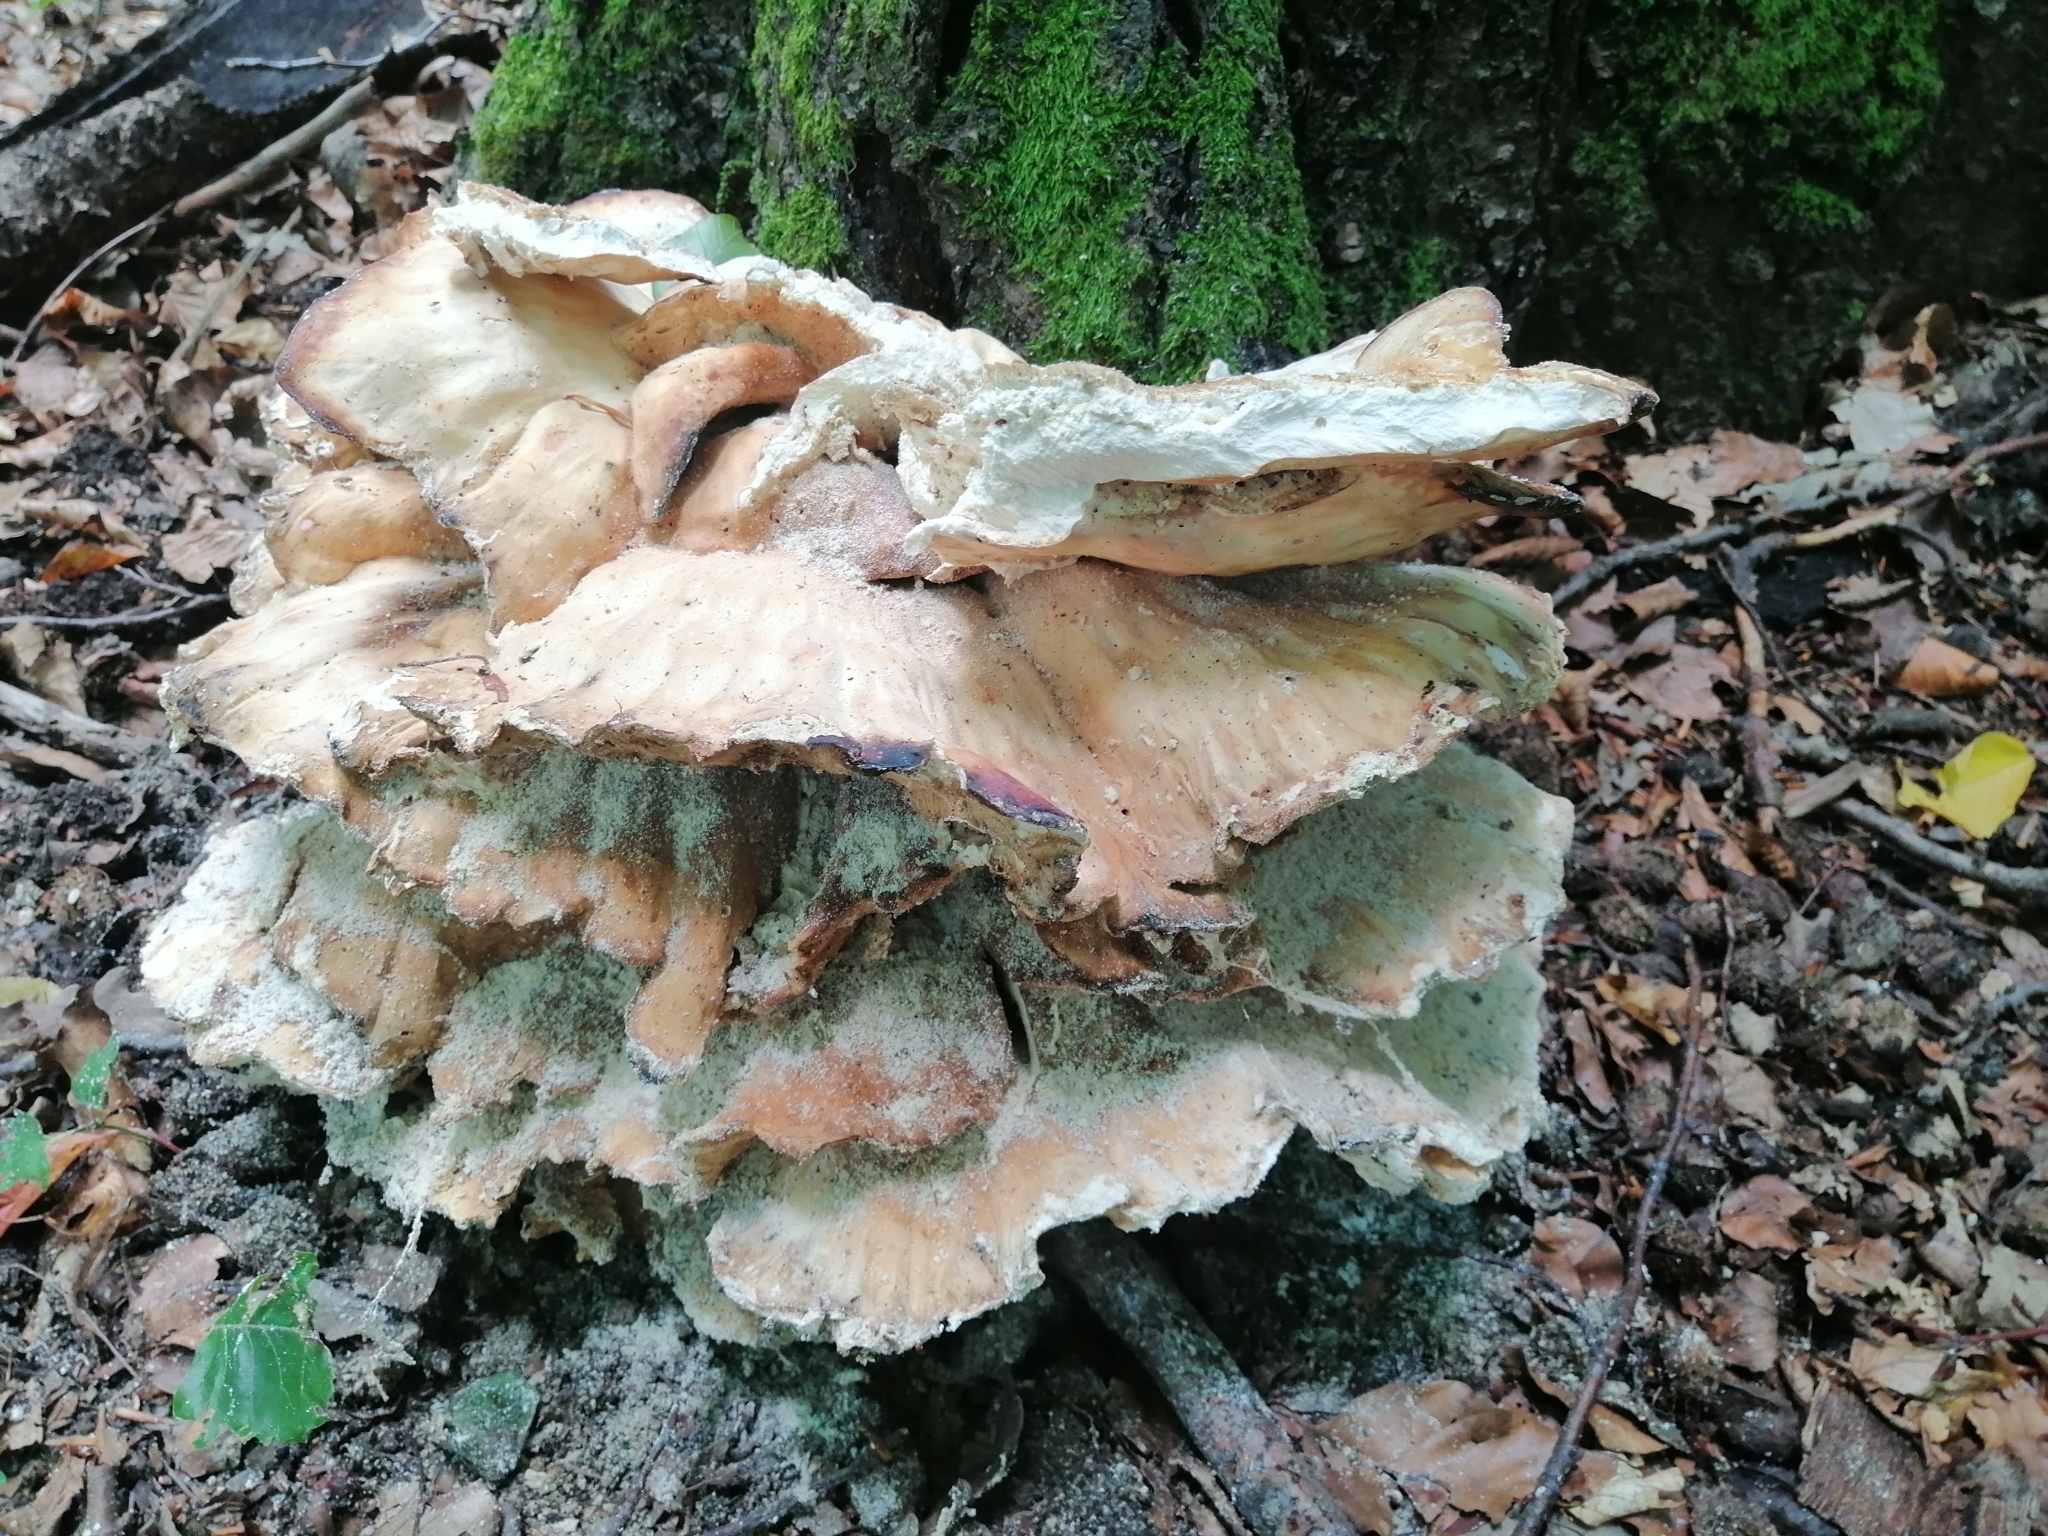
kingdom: Fungi
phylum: Basidiomycota
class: Agaricomycetes
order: Polyporales
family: Laetiporaceae
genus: Laetiporus
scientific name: Laetiporus sulphureus
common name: Chicken of the woods
